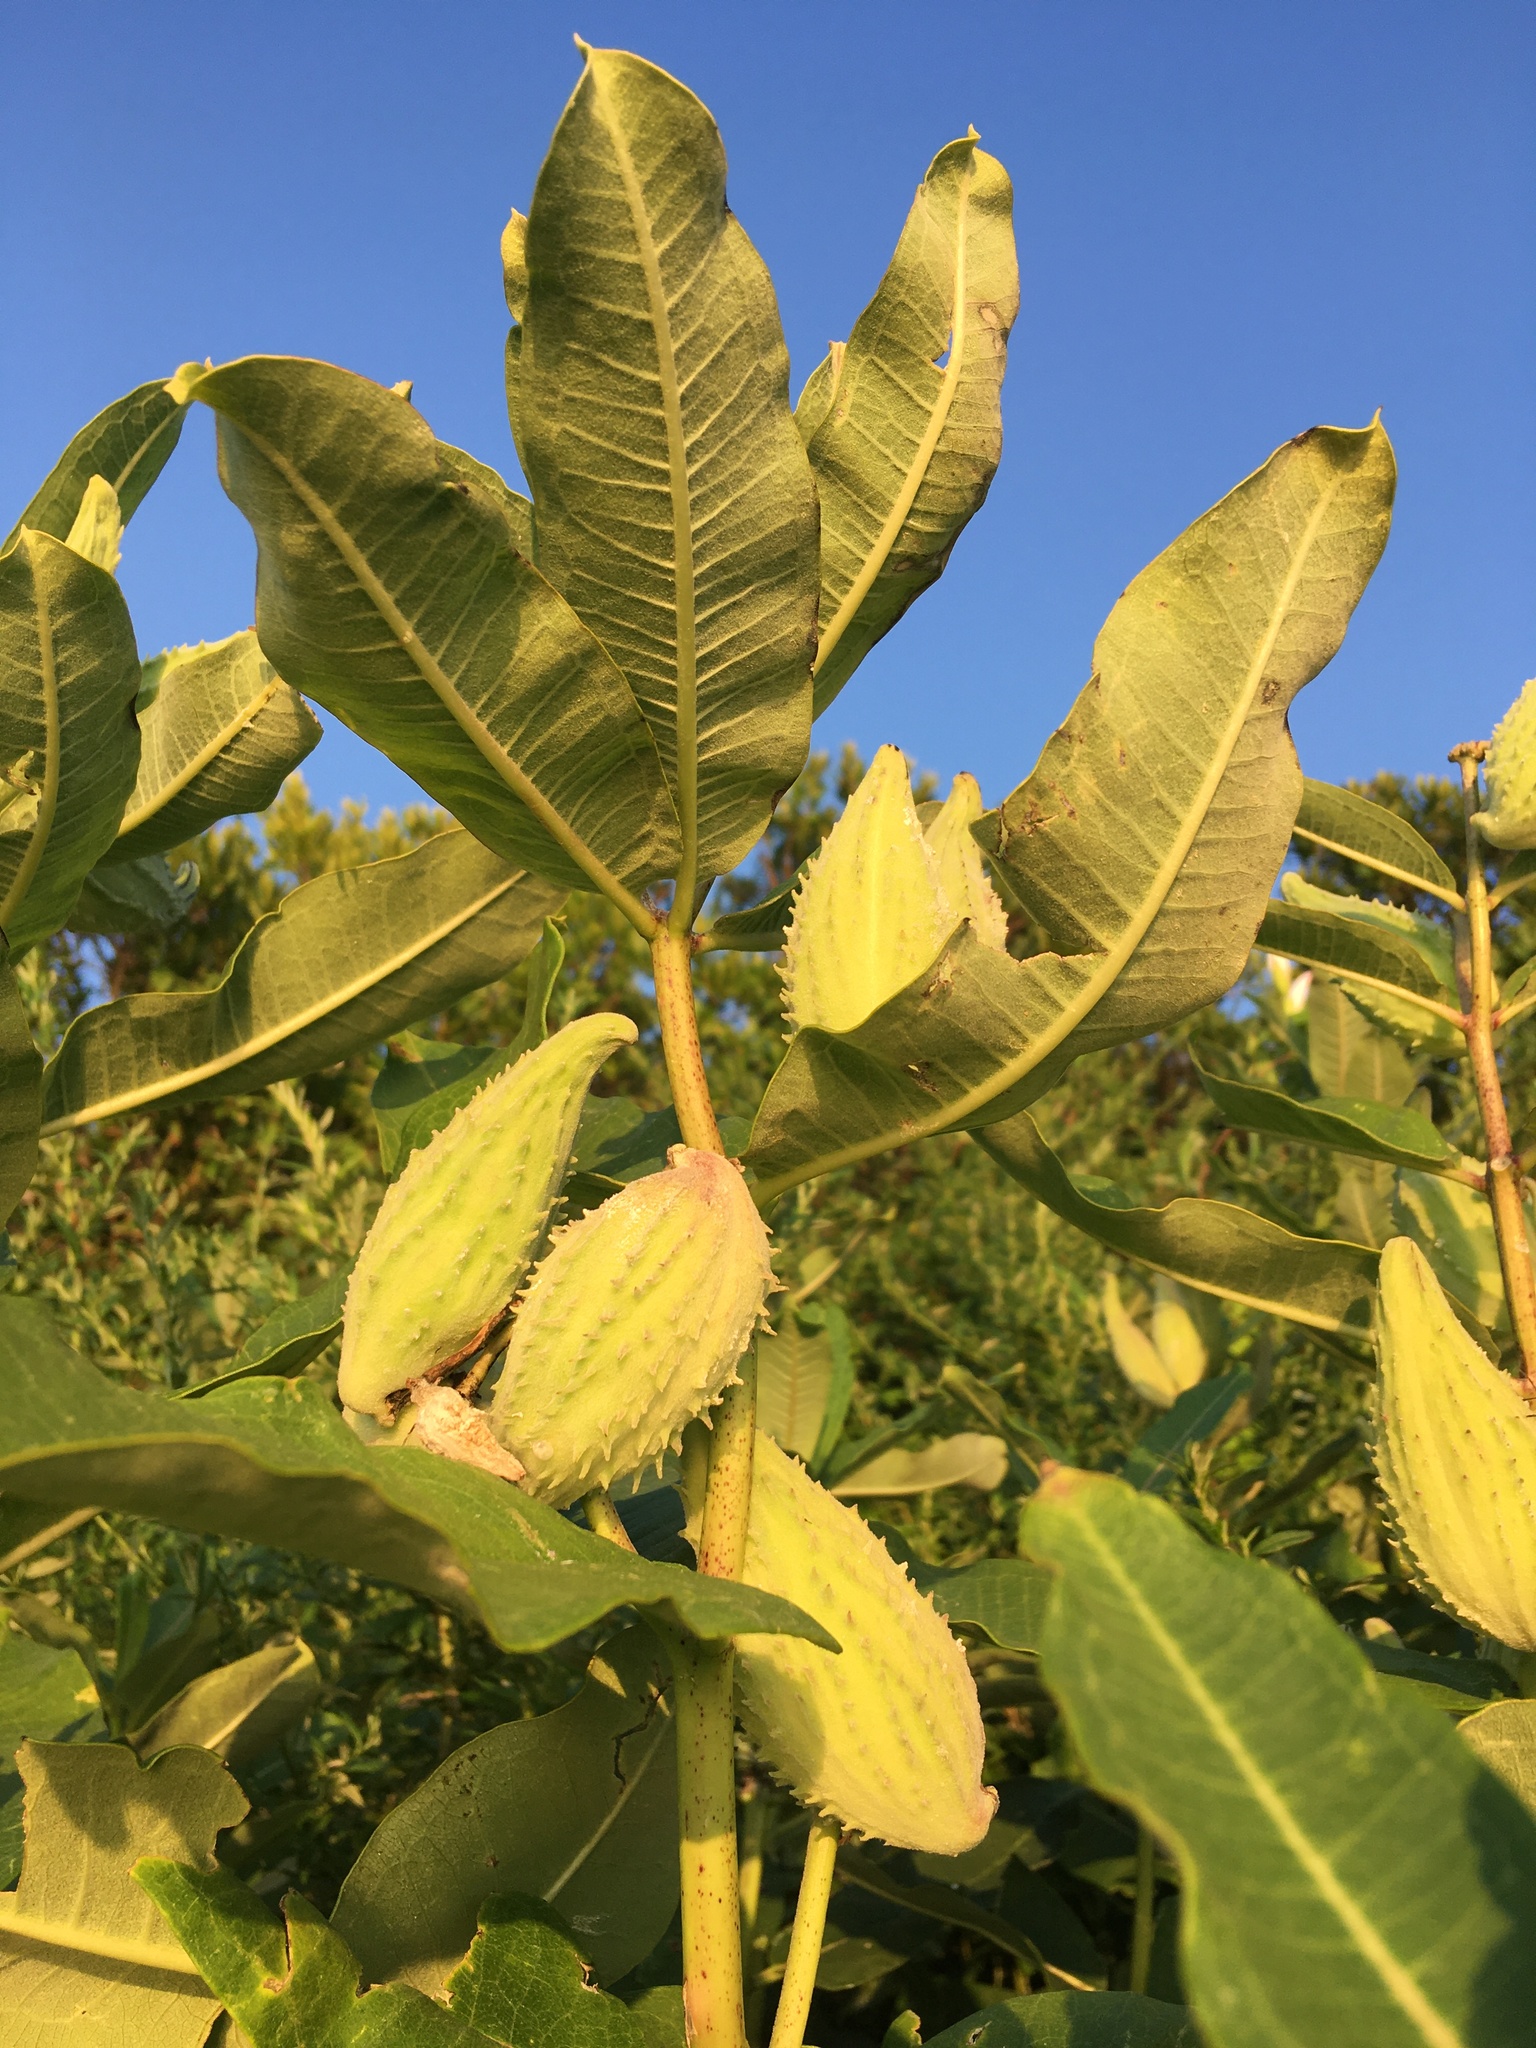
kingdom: Plantae
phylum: Tracheophyta
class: Magnoliopsida
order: Gentianales
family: Apocynaceae
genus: Asclepias
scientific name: Asclepias syriaca
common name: Common milkweed
